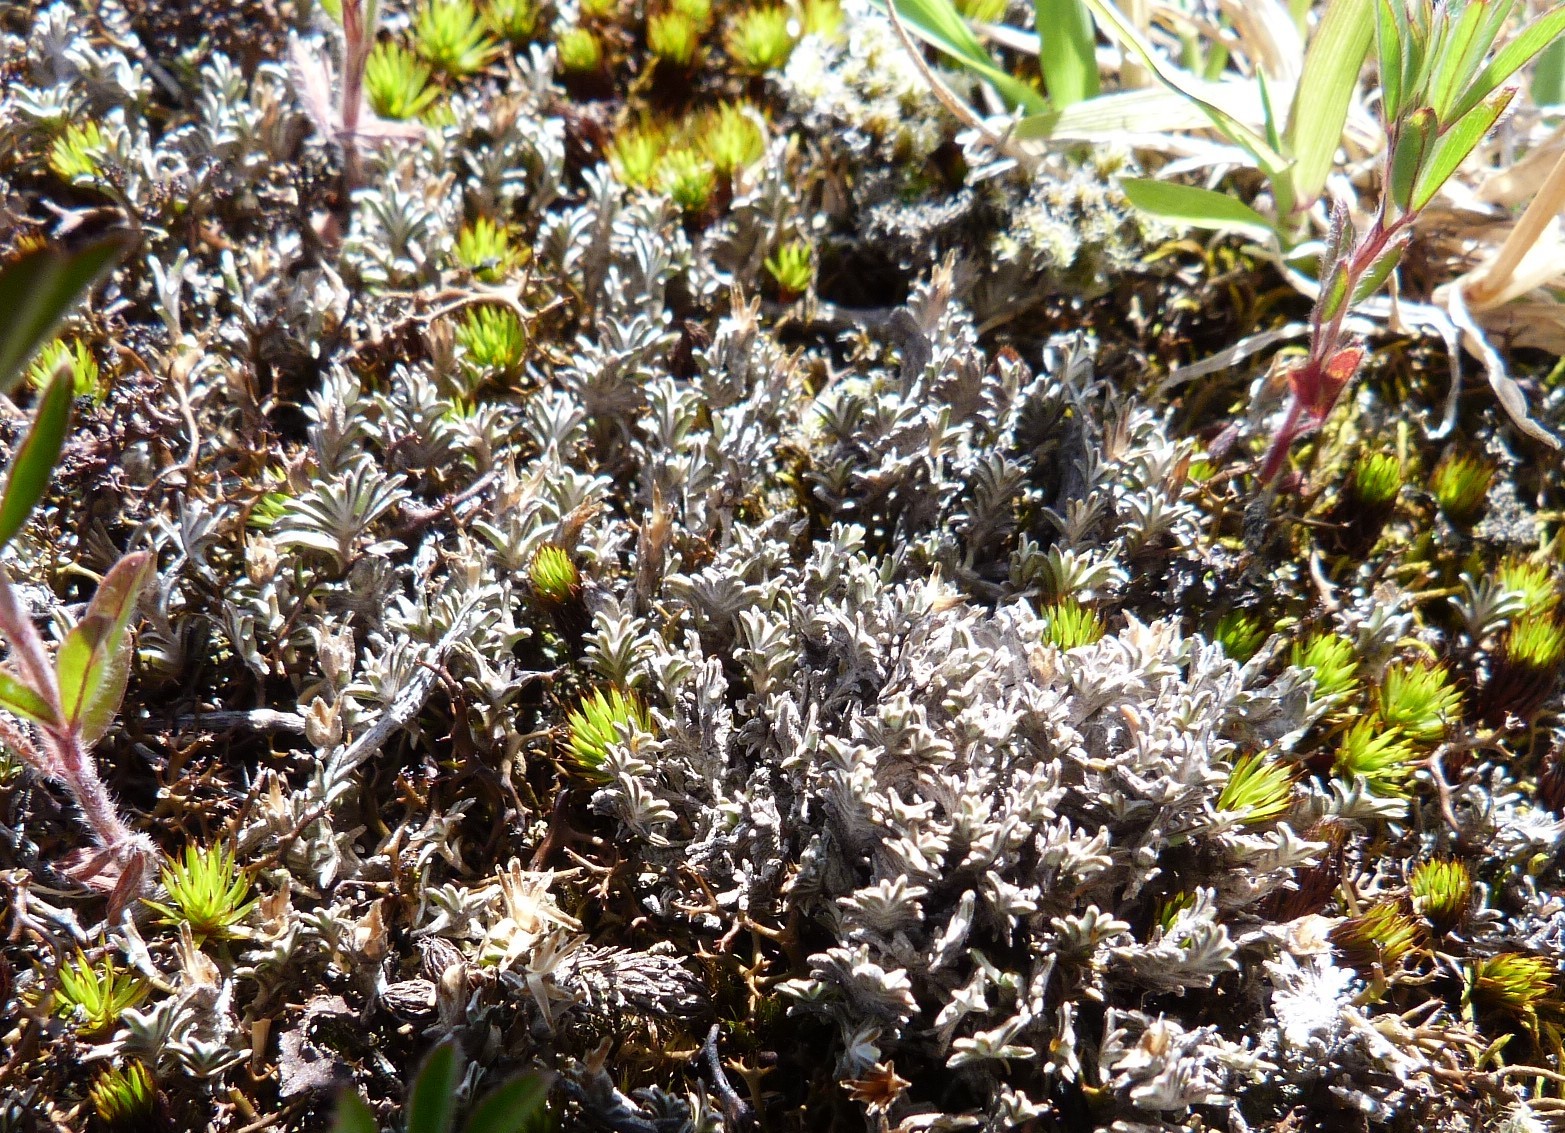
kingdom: Plantae
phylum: Tracheophyta
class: Magnoliopsida
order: Asterales
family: Asteraceae
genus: Raoulia
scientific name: Raoulia monroi
